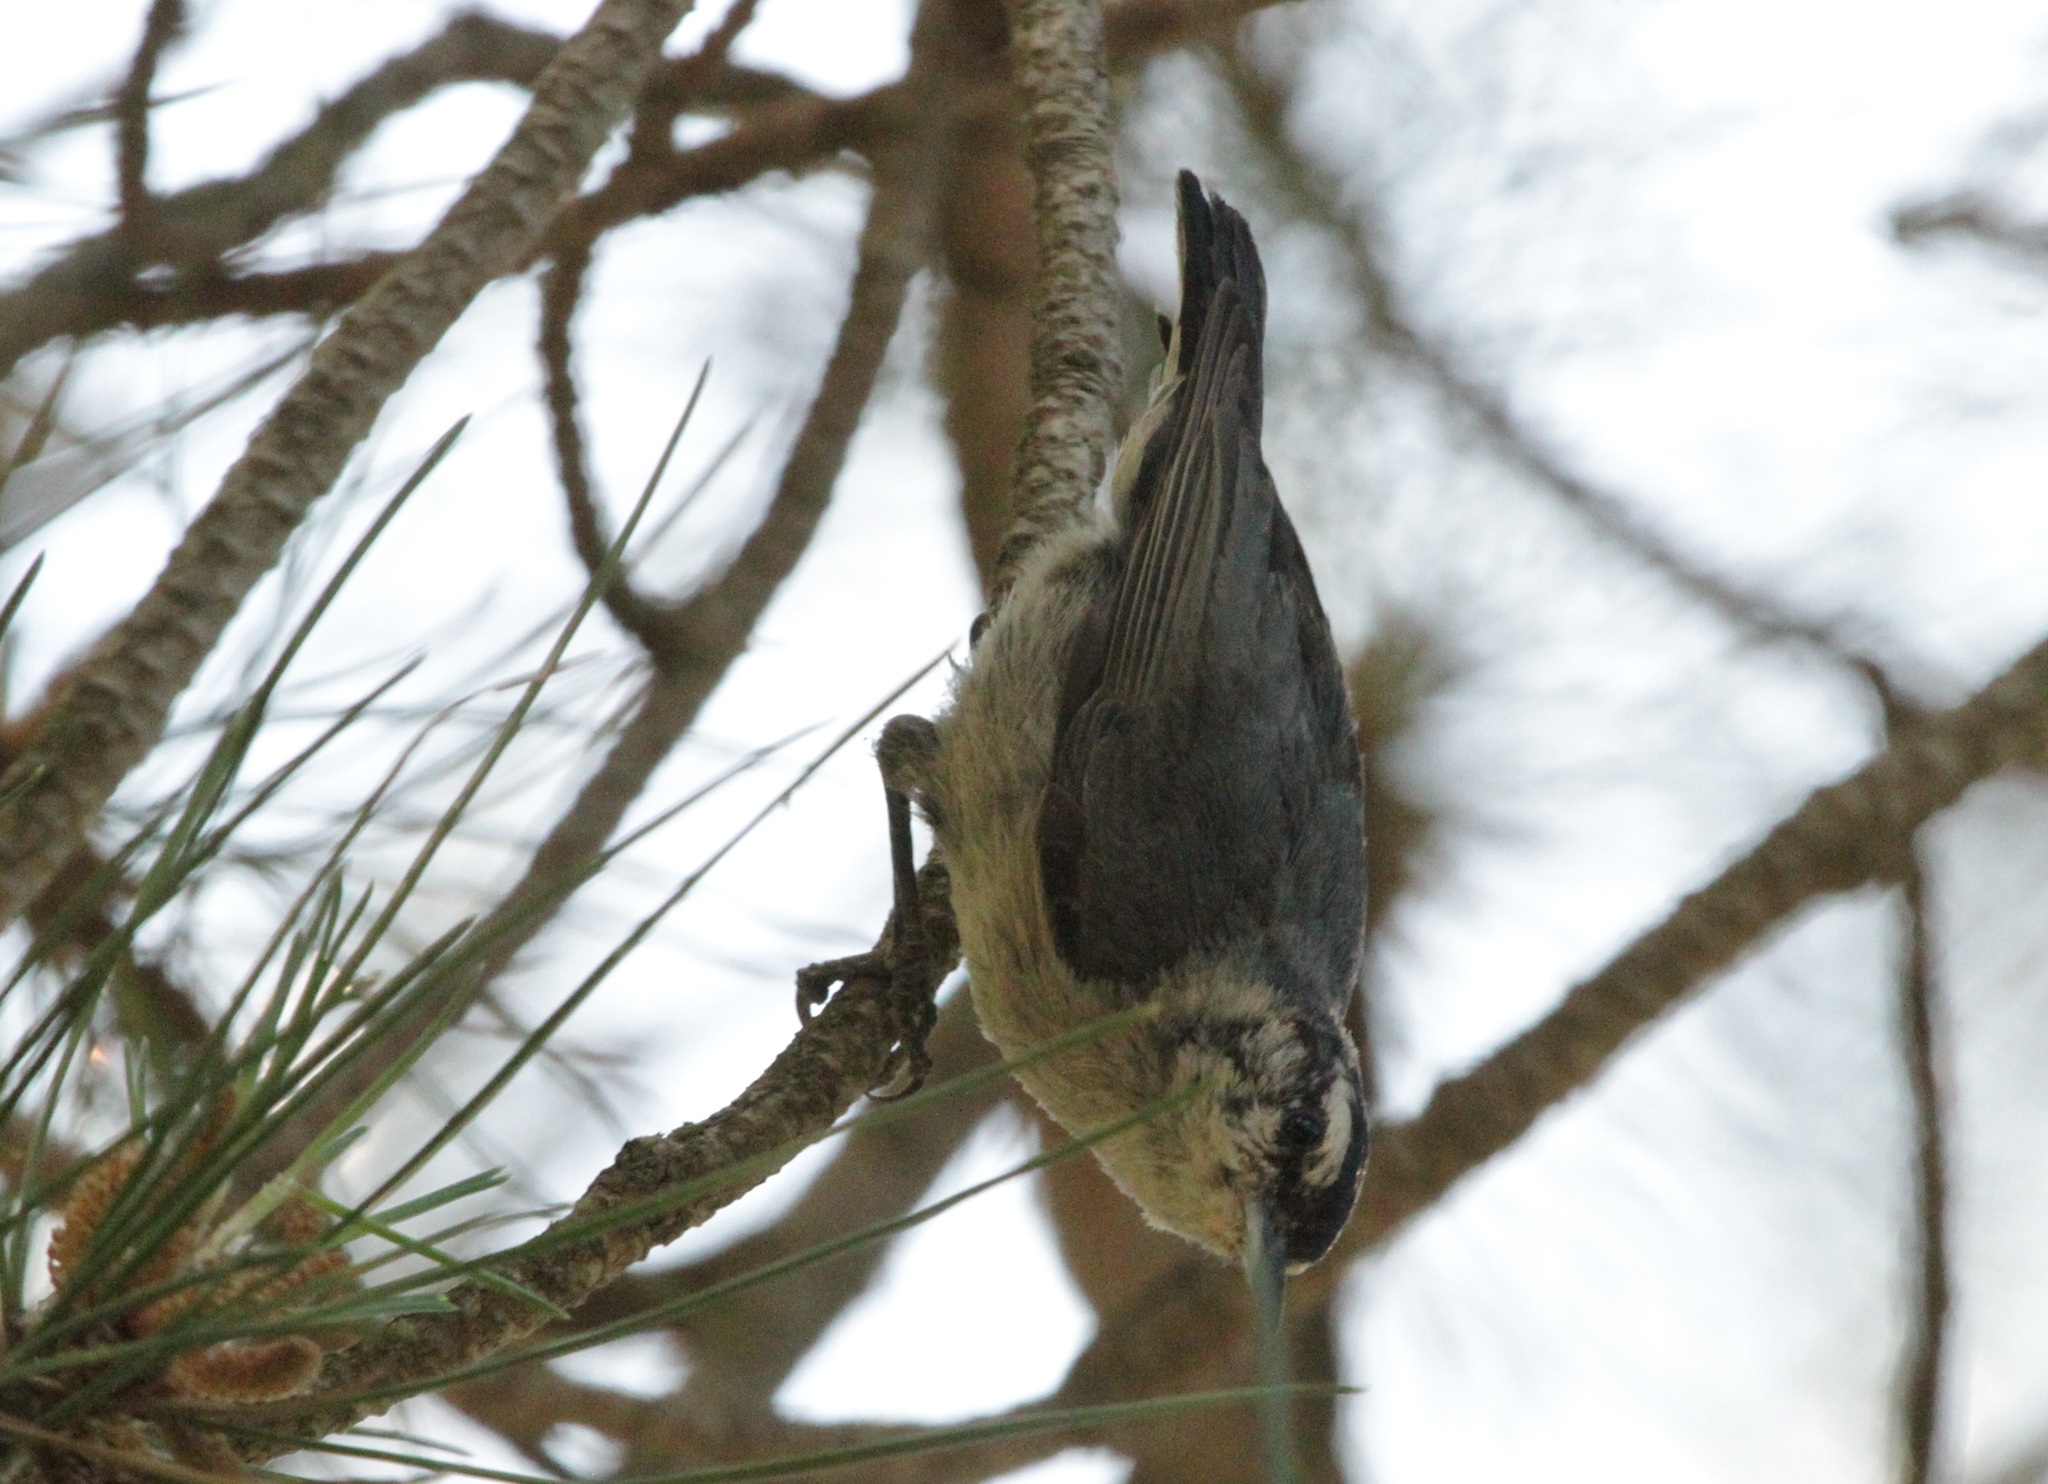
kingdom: Animalia
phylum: Chordata
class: Aves
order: Passeriformes
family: Sittidae
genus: Sitta
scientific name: Sitta whiteheadi
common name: Corsican nuthatch
